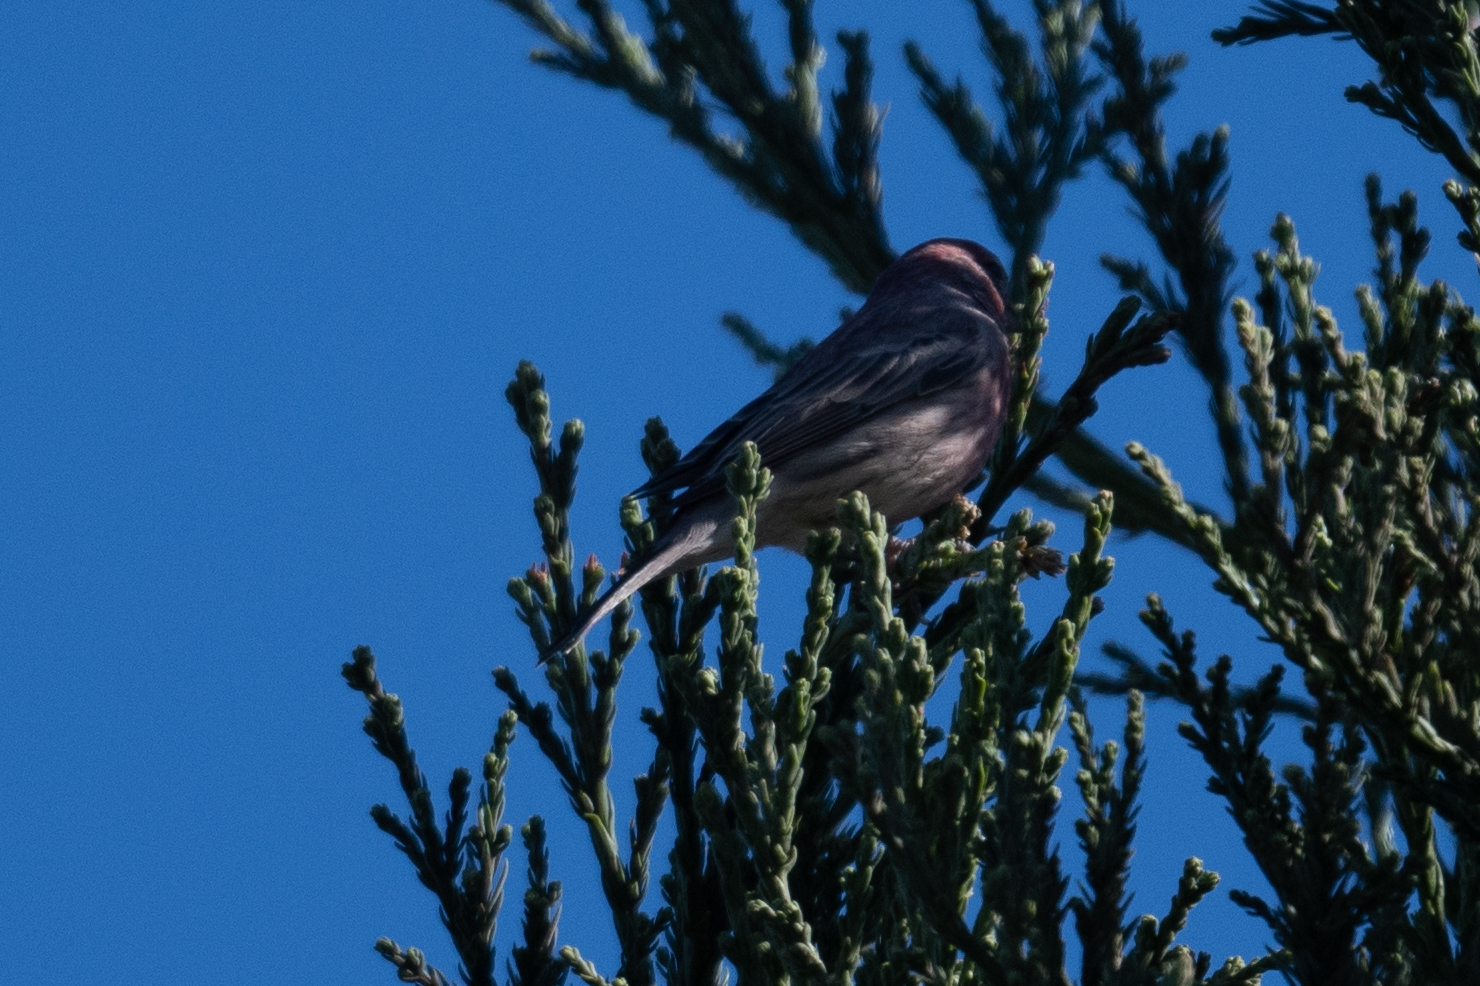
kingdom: Animalia
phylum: Chordata
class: Aves
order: Passeriformes
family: Fringillidae
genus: Haemorhous
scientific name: Haemorhous mexicanus
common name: House finch
